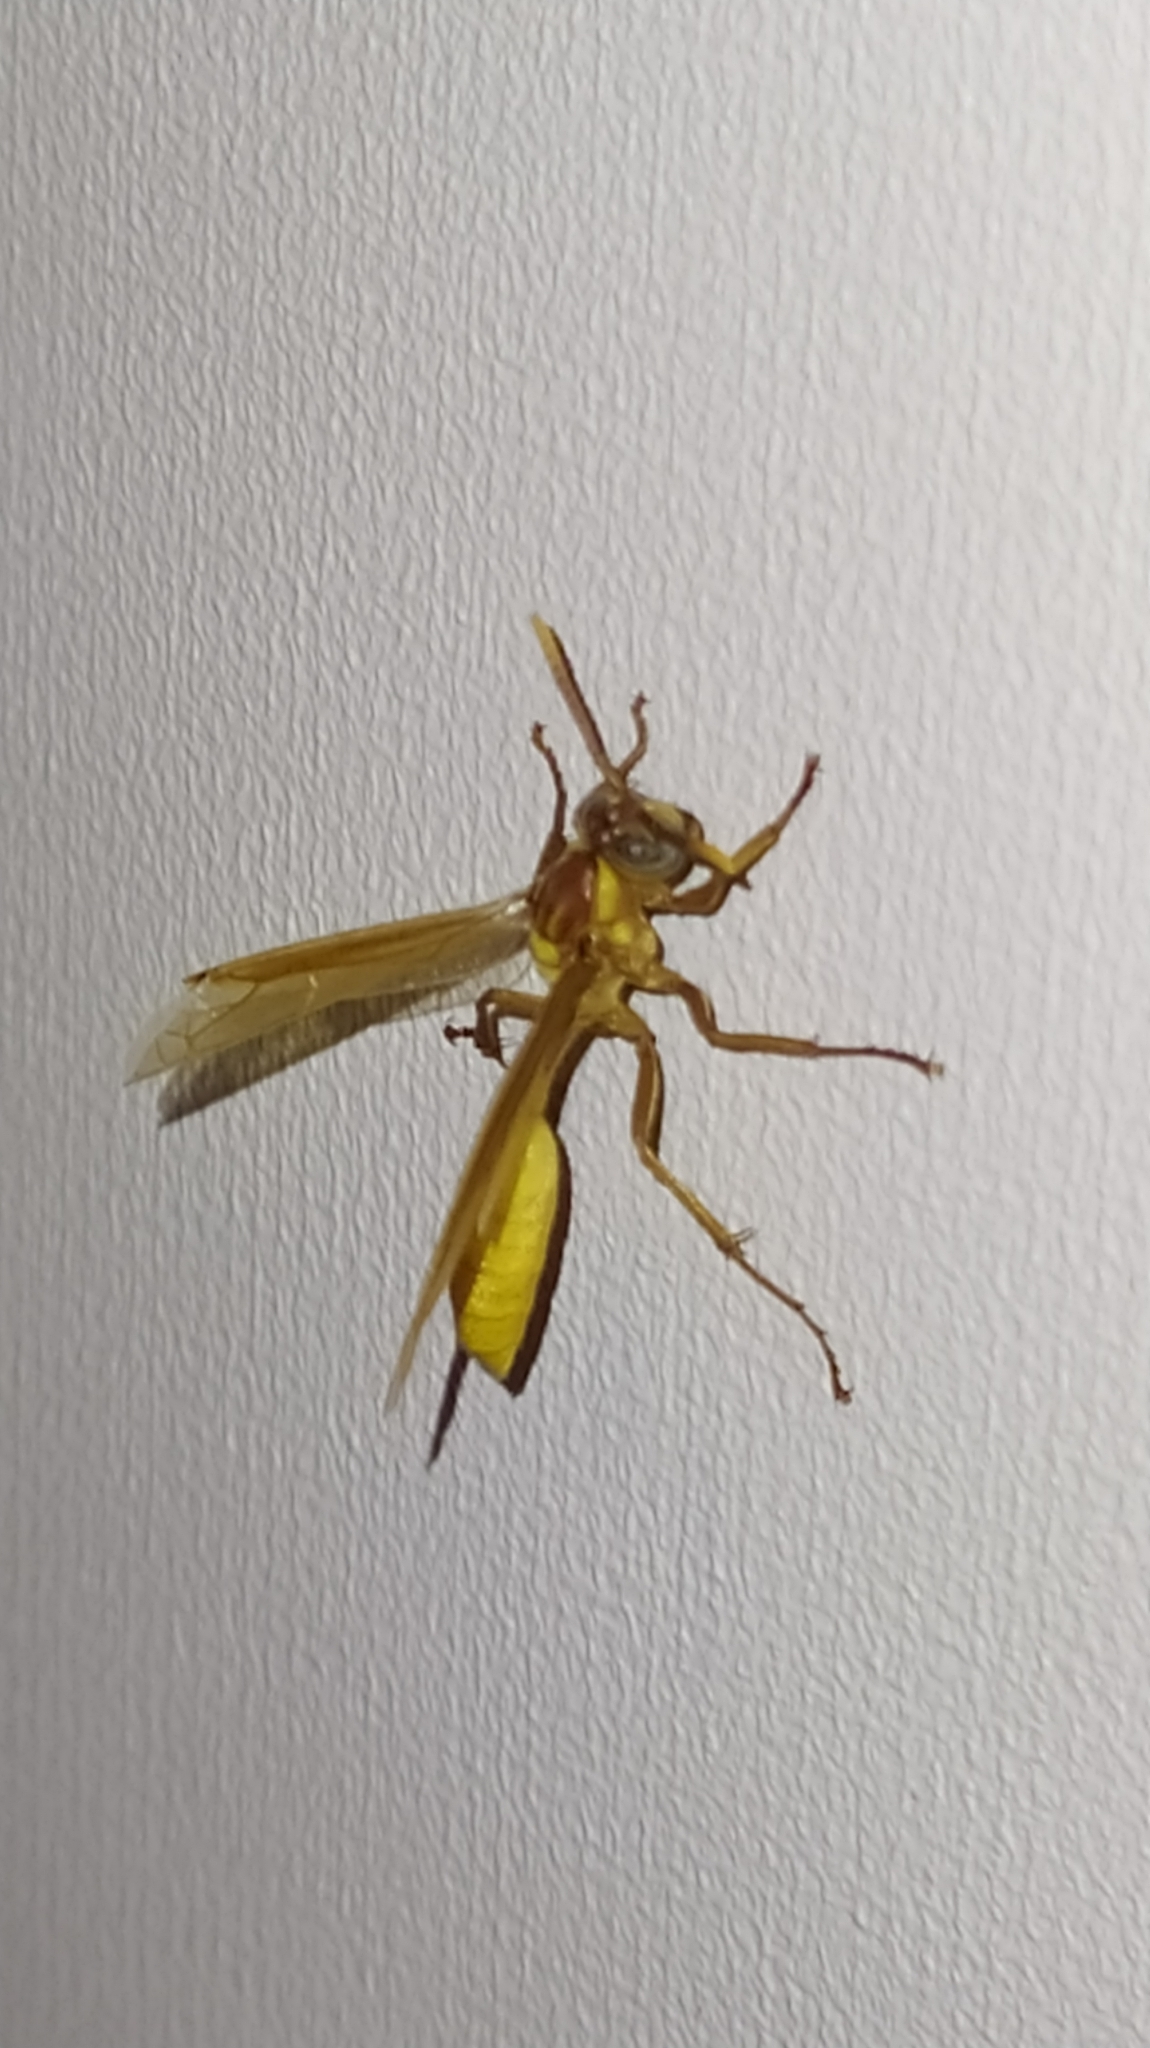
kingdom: Animalia
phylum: Arthropoda
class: Insecta
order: Hymenoptera
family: Vespidae
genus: Apoica
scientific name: Apoica flavissima
